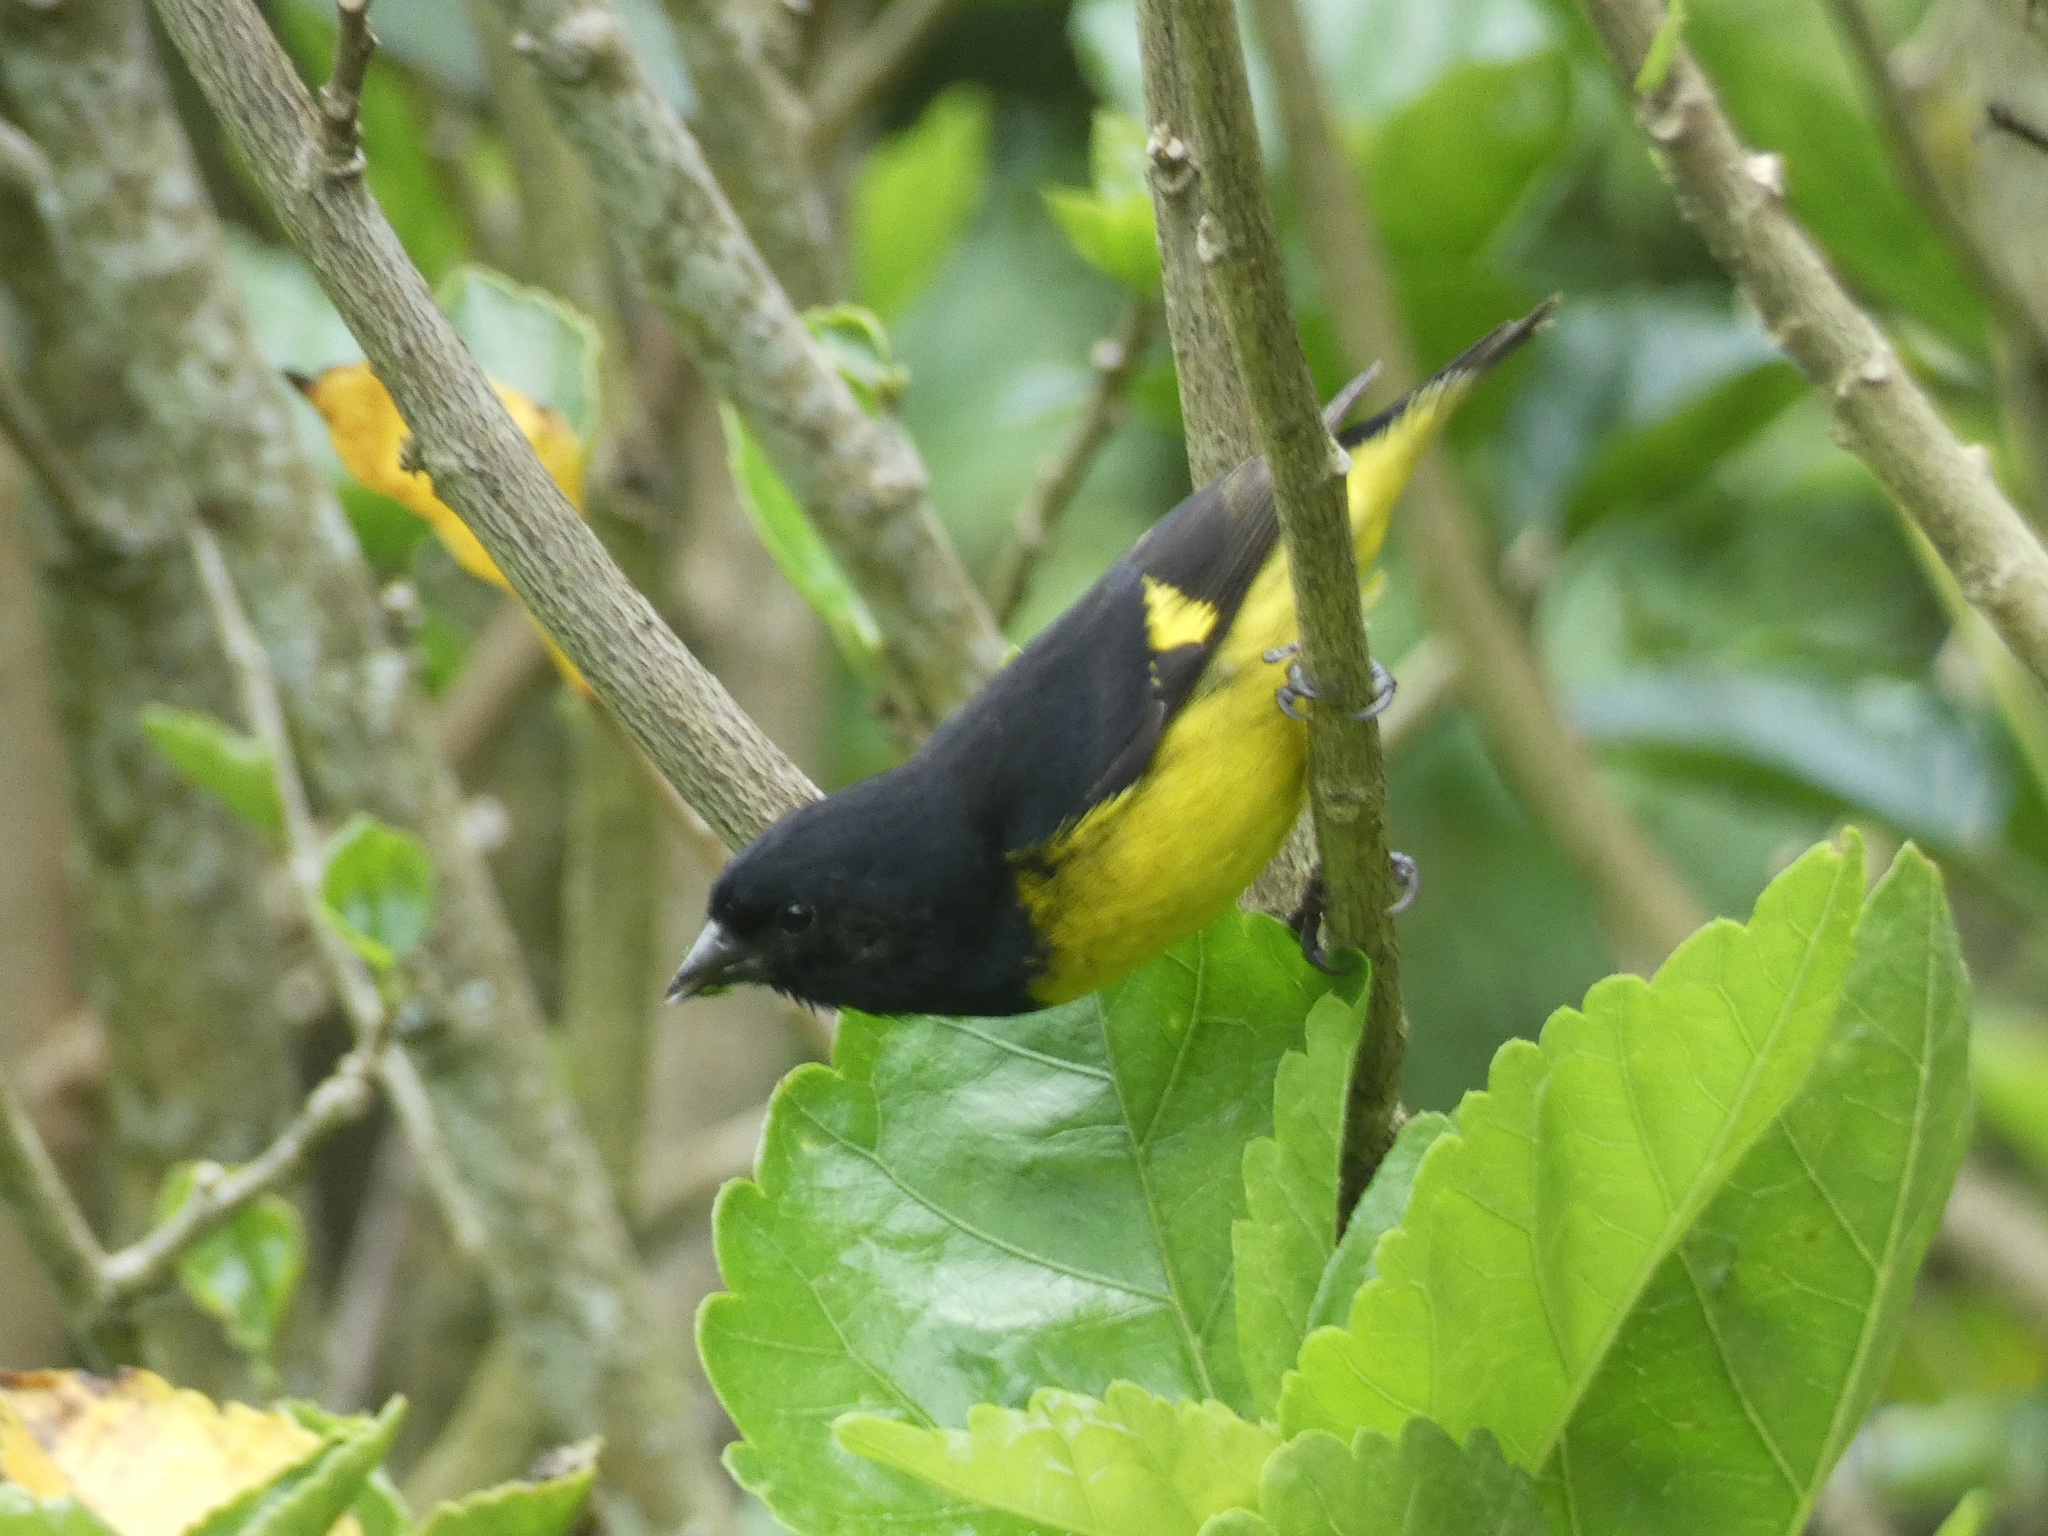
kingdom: Animalia
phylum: Chordata
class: Aves
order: Passeriformes
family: Fringillidae
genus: Spinus
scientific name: Spinus xanthogastrus
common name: Yellow-bellied siskin
